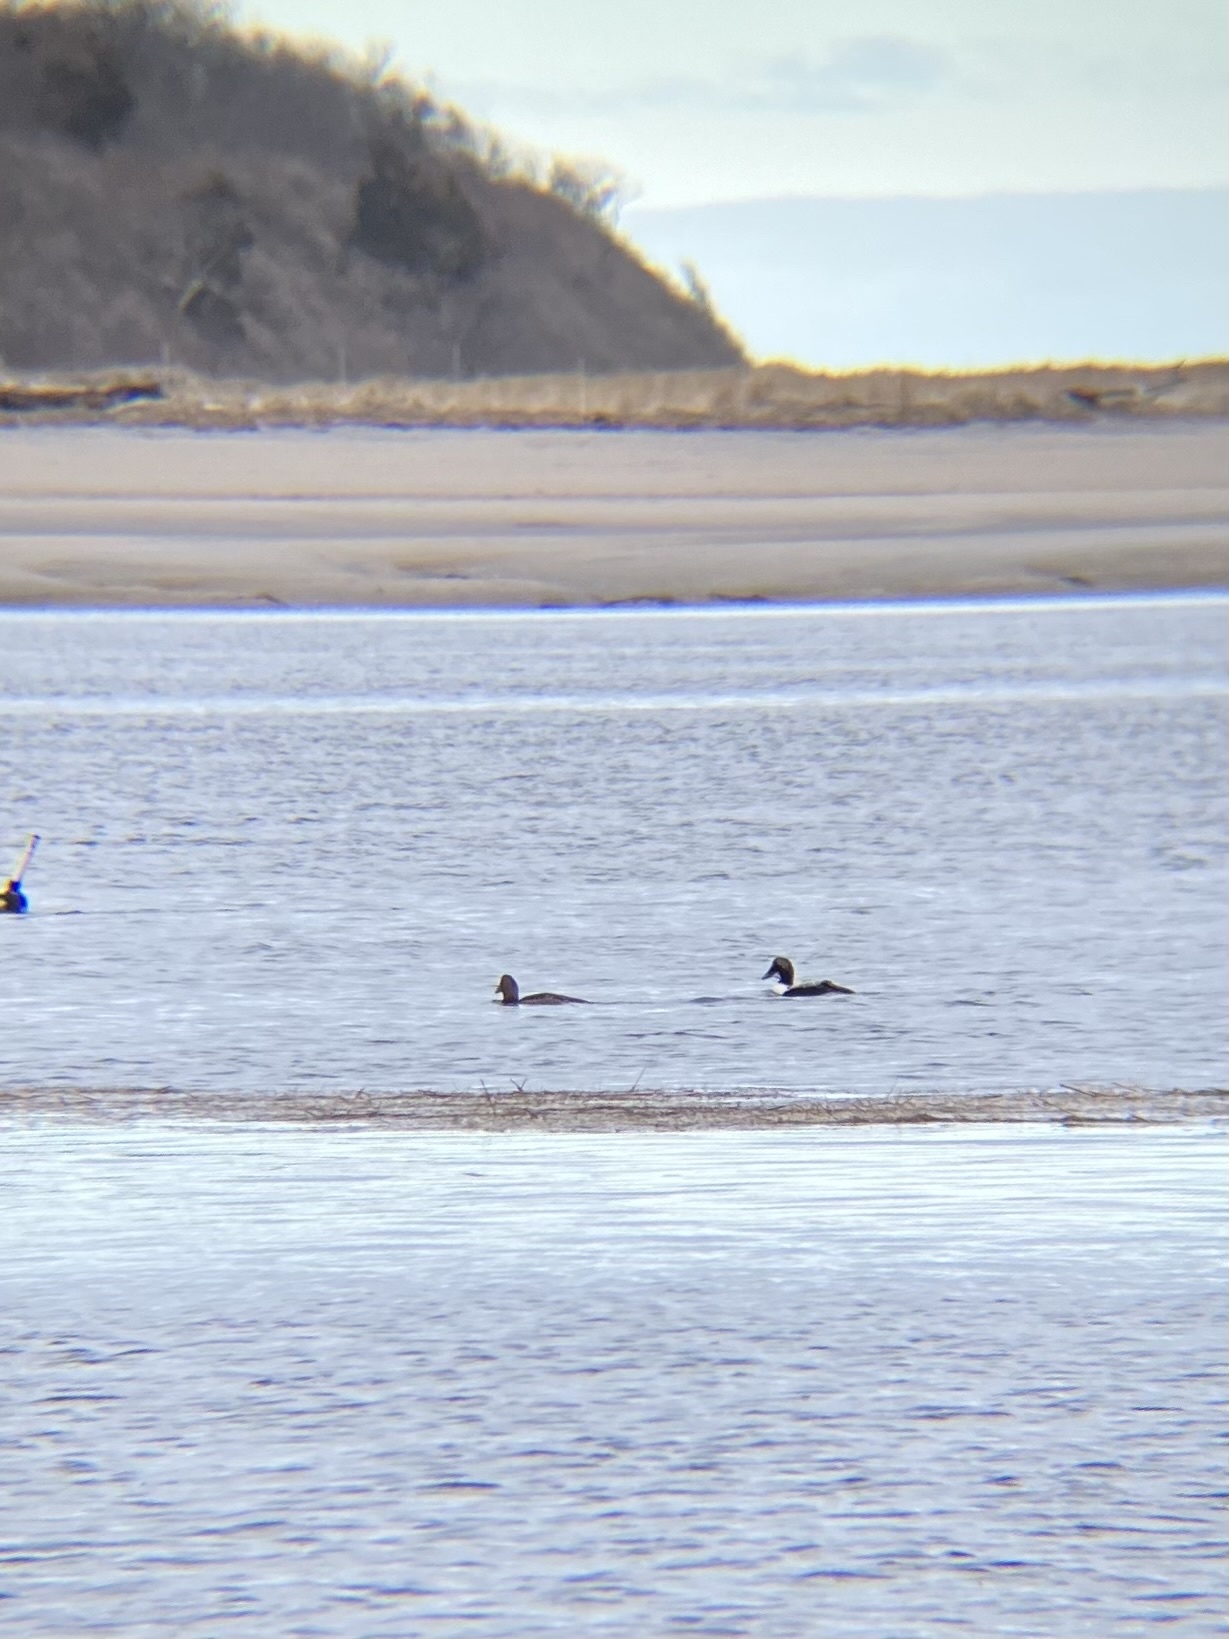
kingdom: Animalia
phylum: Chordata
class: Aves
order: Anseriformes
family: Anatidae
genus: Somateria
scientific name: Somateria mollissima
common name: Common eider
